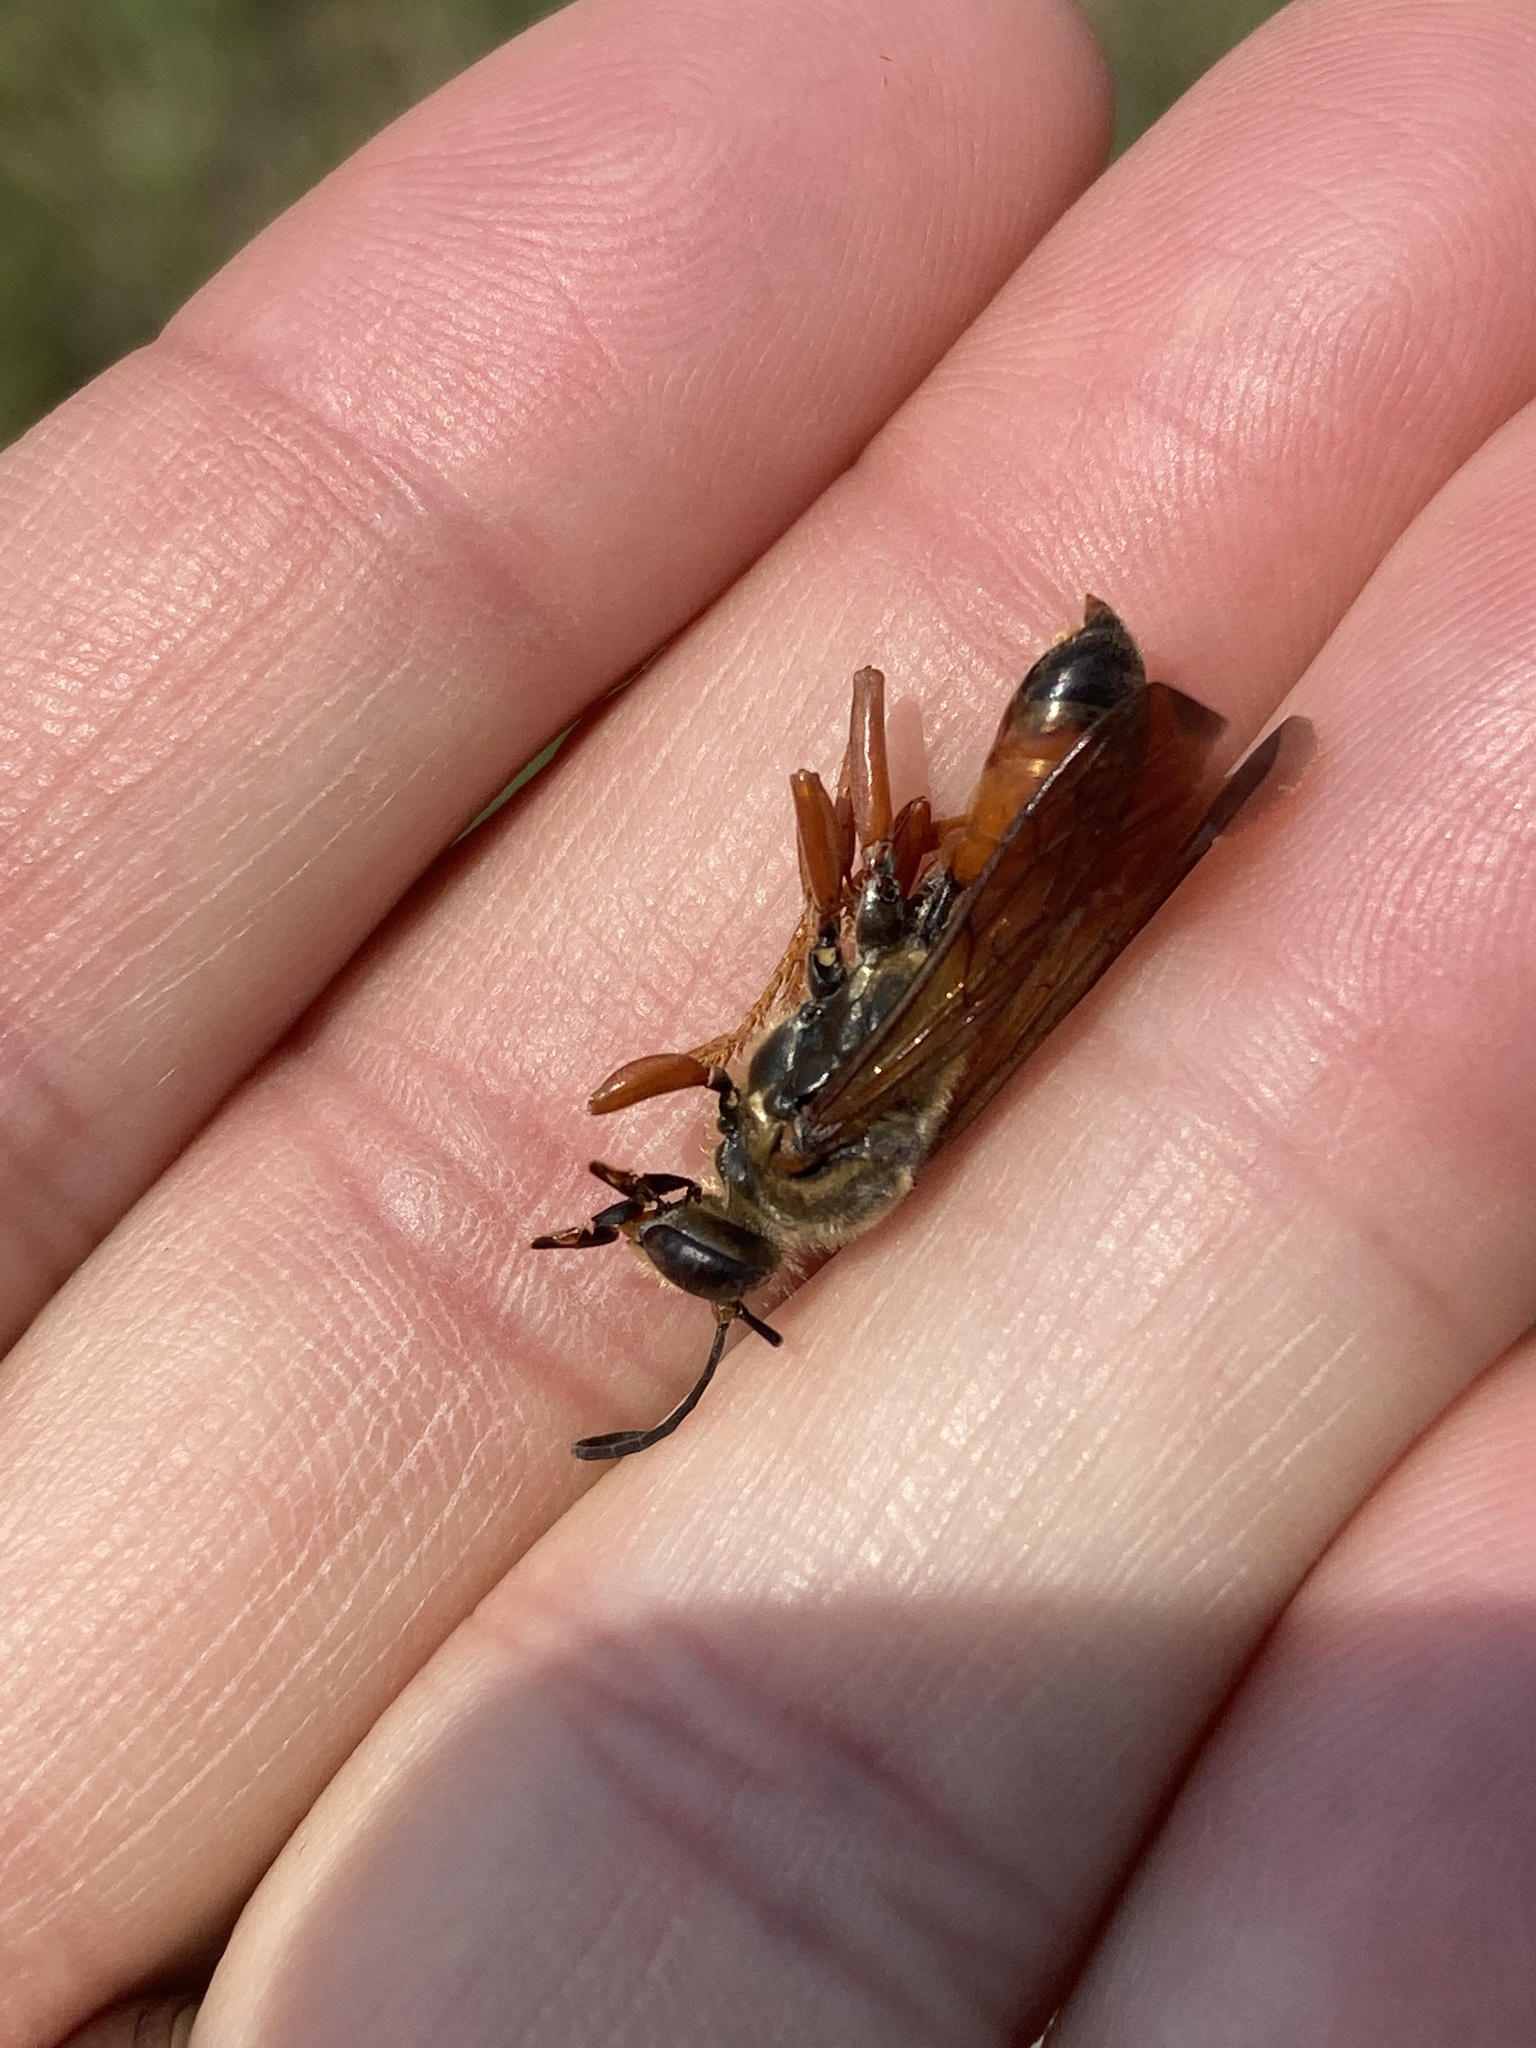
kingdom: Animalia
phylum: Arthropoda
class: Insecta
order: Hymenoptera
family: Sphecidae
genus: Sphex
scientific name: Sphex ichneumoneus
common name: Great golden digger wasp
